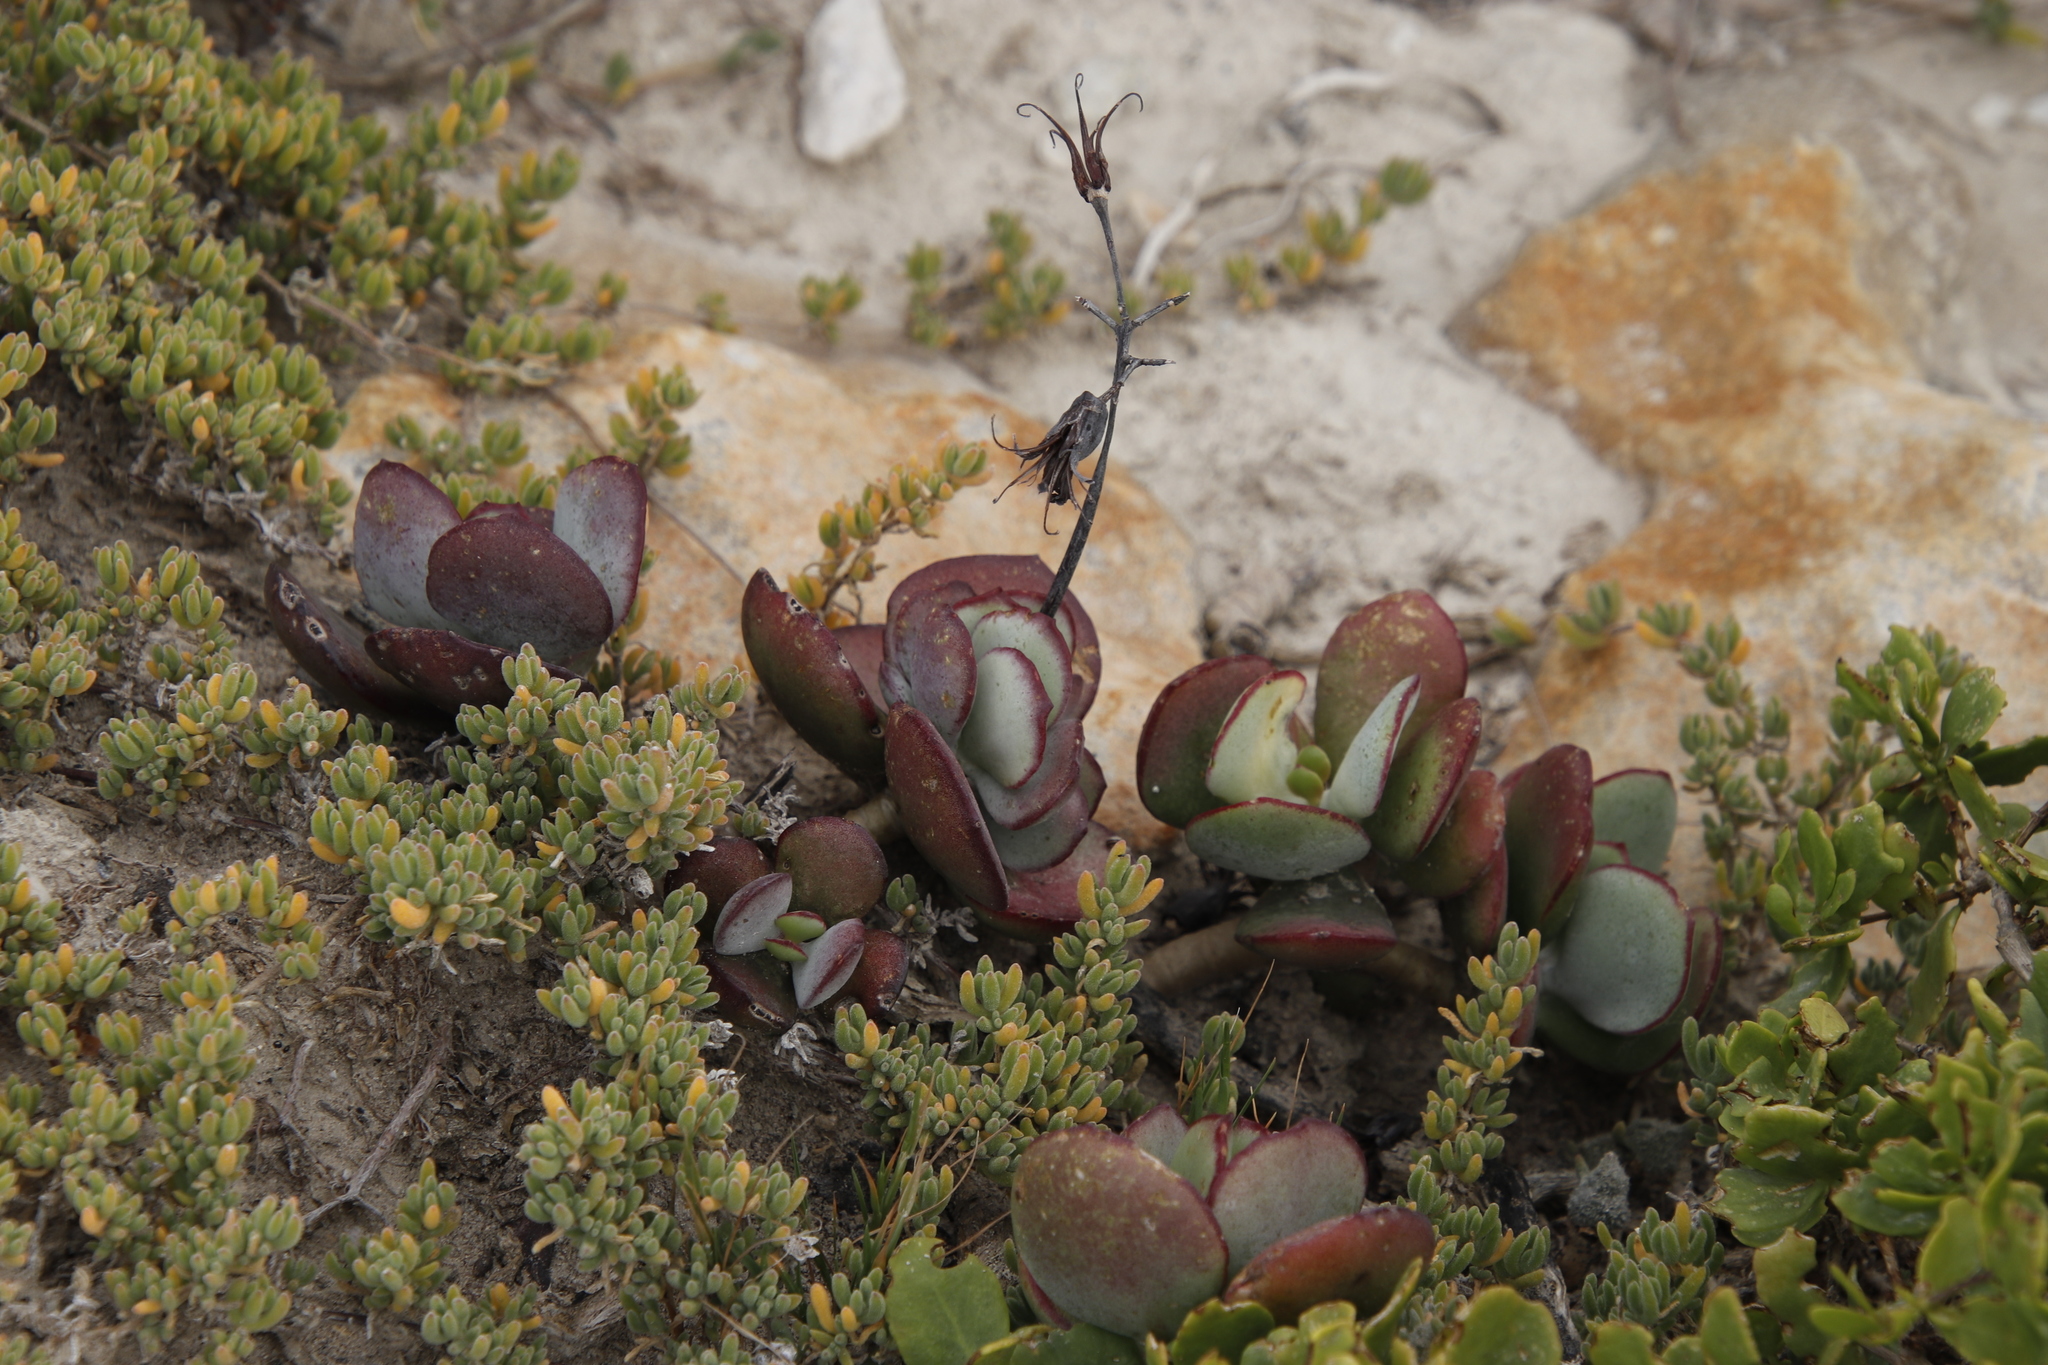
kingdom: Plantae
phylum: Tracheophyta
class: Magnoliopsida
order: Saxifragales
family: Crassulaceae
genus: Cotyledon
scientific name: Cotyledon orbiculata
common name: Pig's ear
